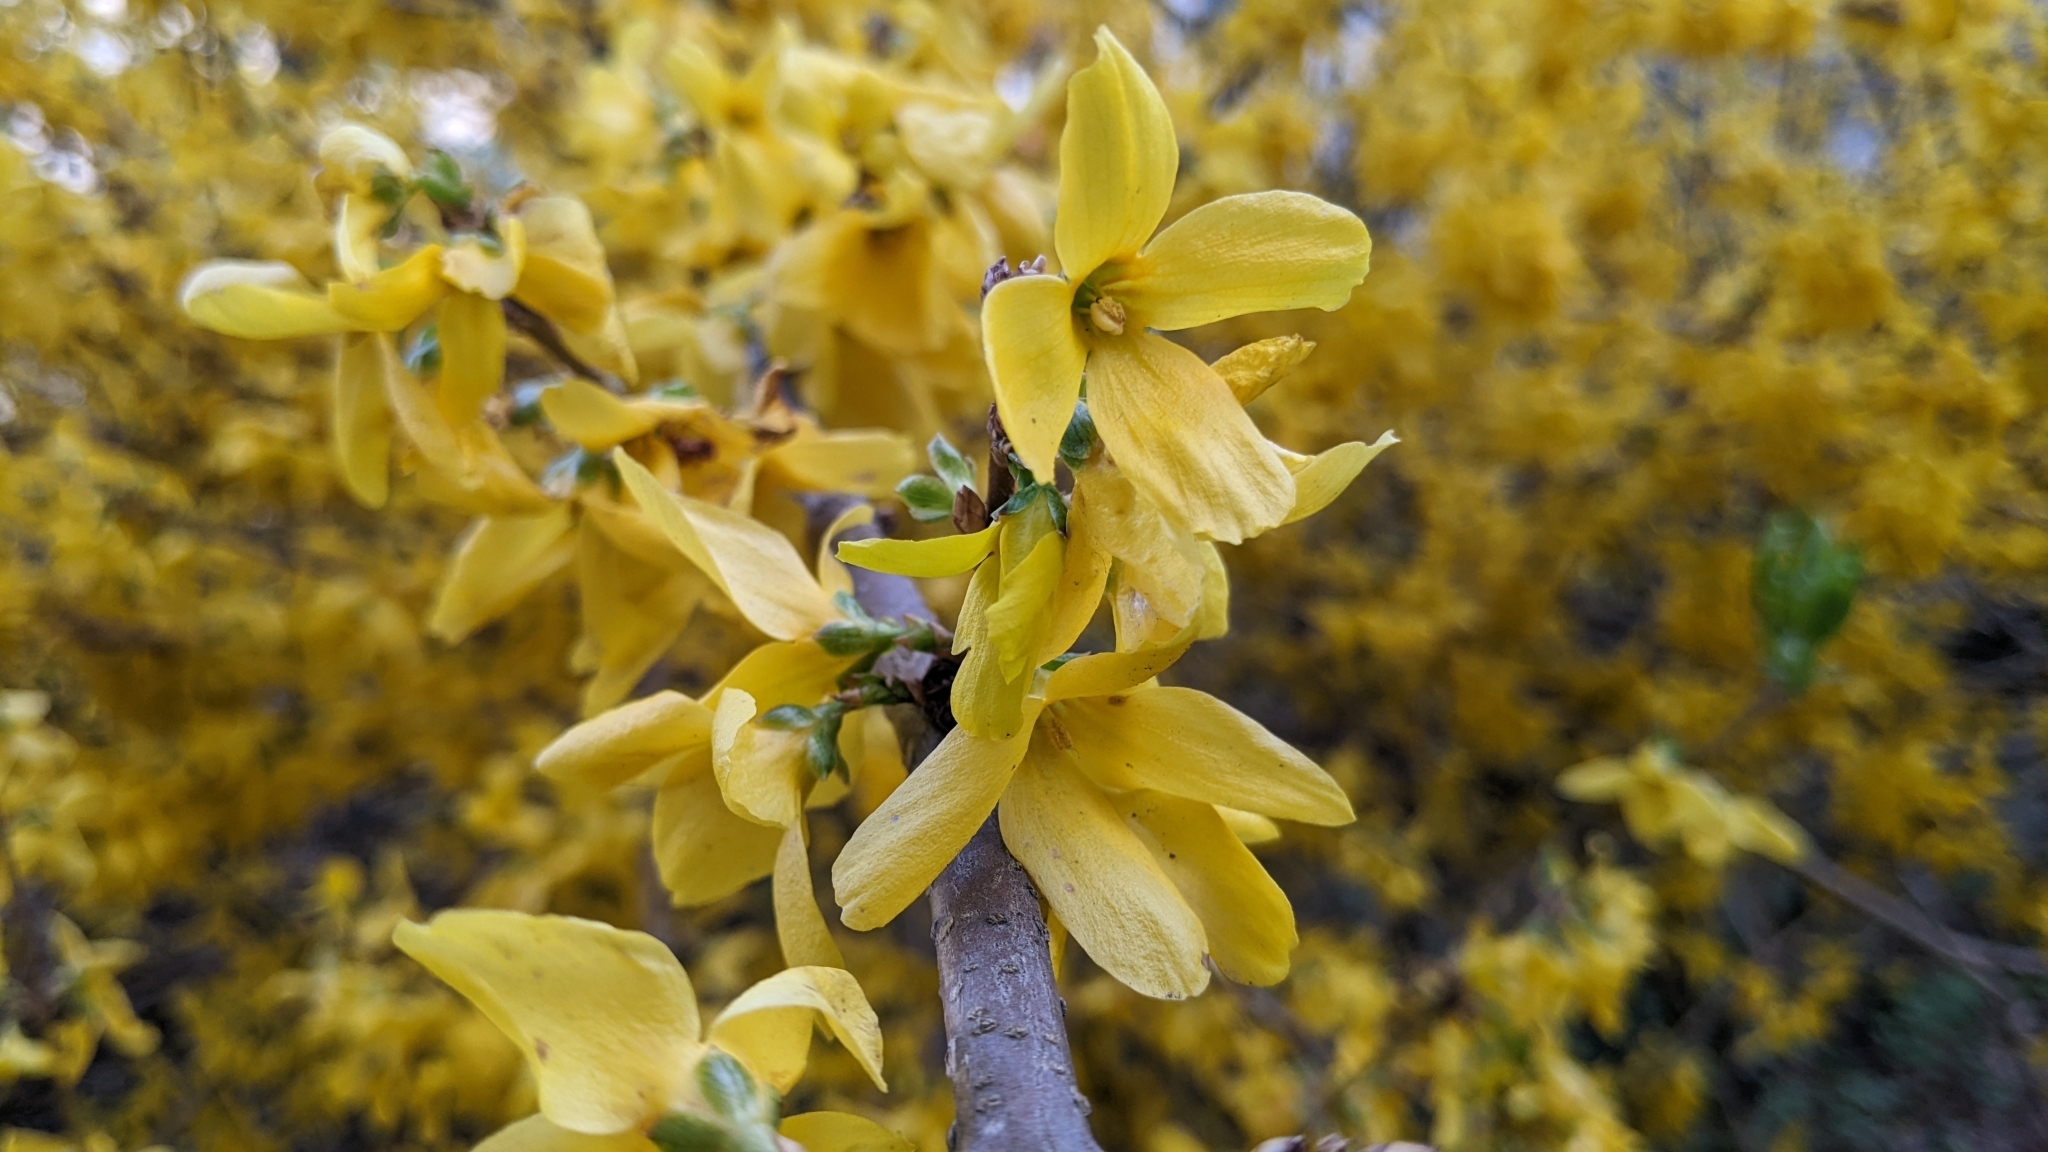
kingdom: Plantae
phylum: Tracheophyta
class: Magnoliopsida
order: Lamiales
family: Oleaceae
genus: Forsythia
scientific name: Forsythia intermedia
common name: Forsythia
